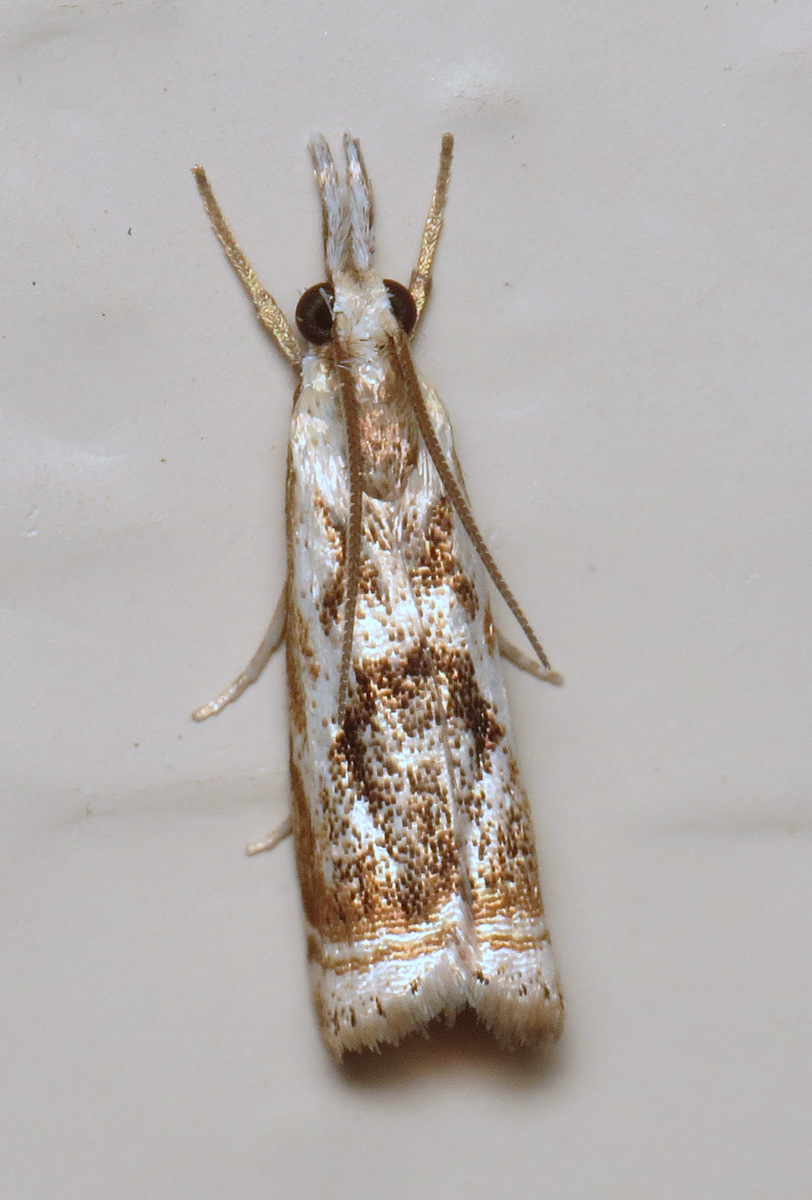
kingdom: Animalia
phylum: Arthropoda
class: Insecta
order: Lepidoptera
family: Crambidae
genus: Microcrambus
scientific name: Microcrambus elegans
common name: Elegant grass-veneer
